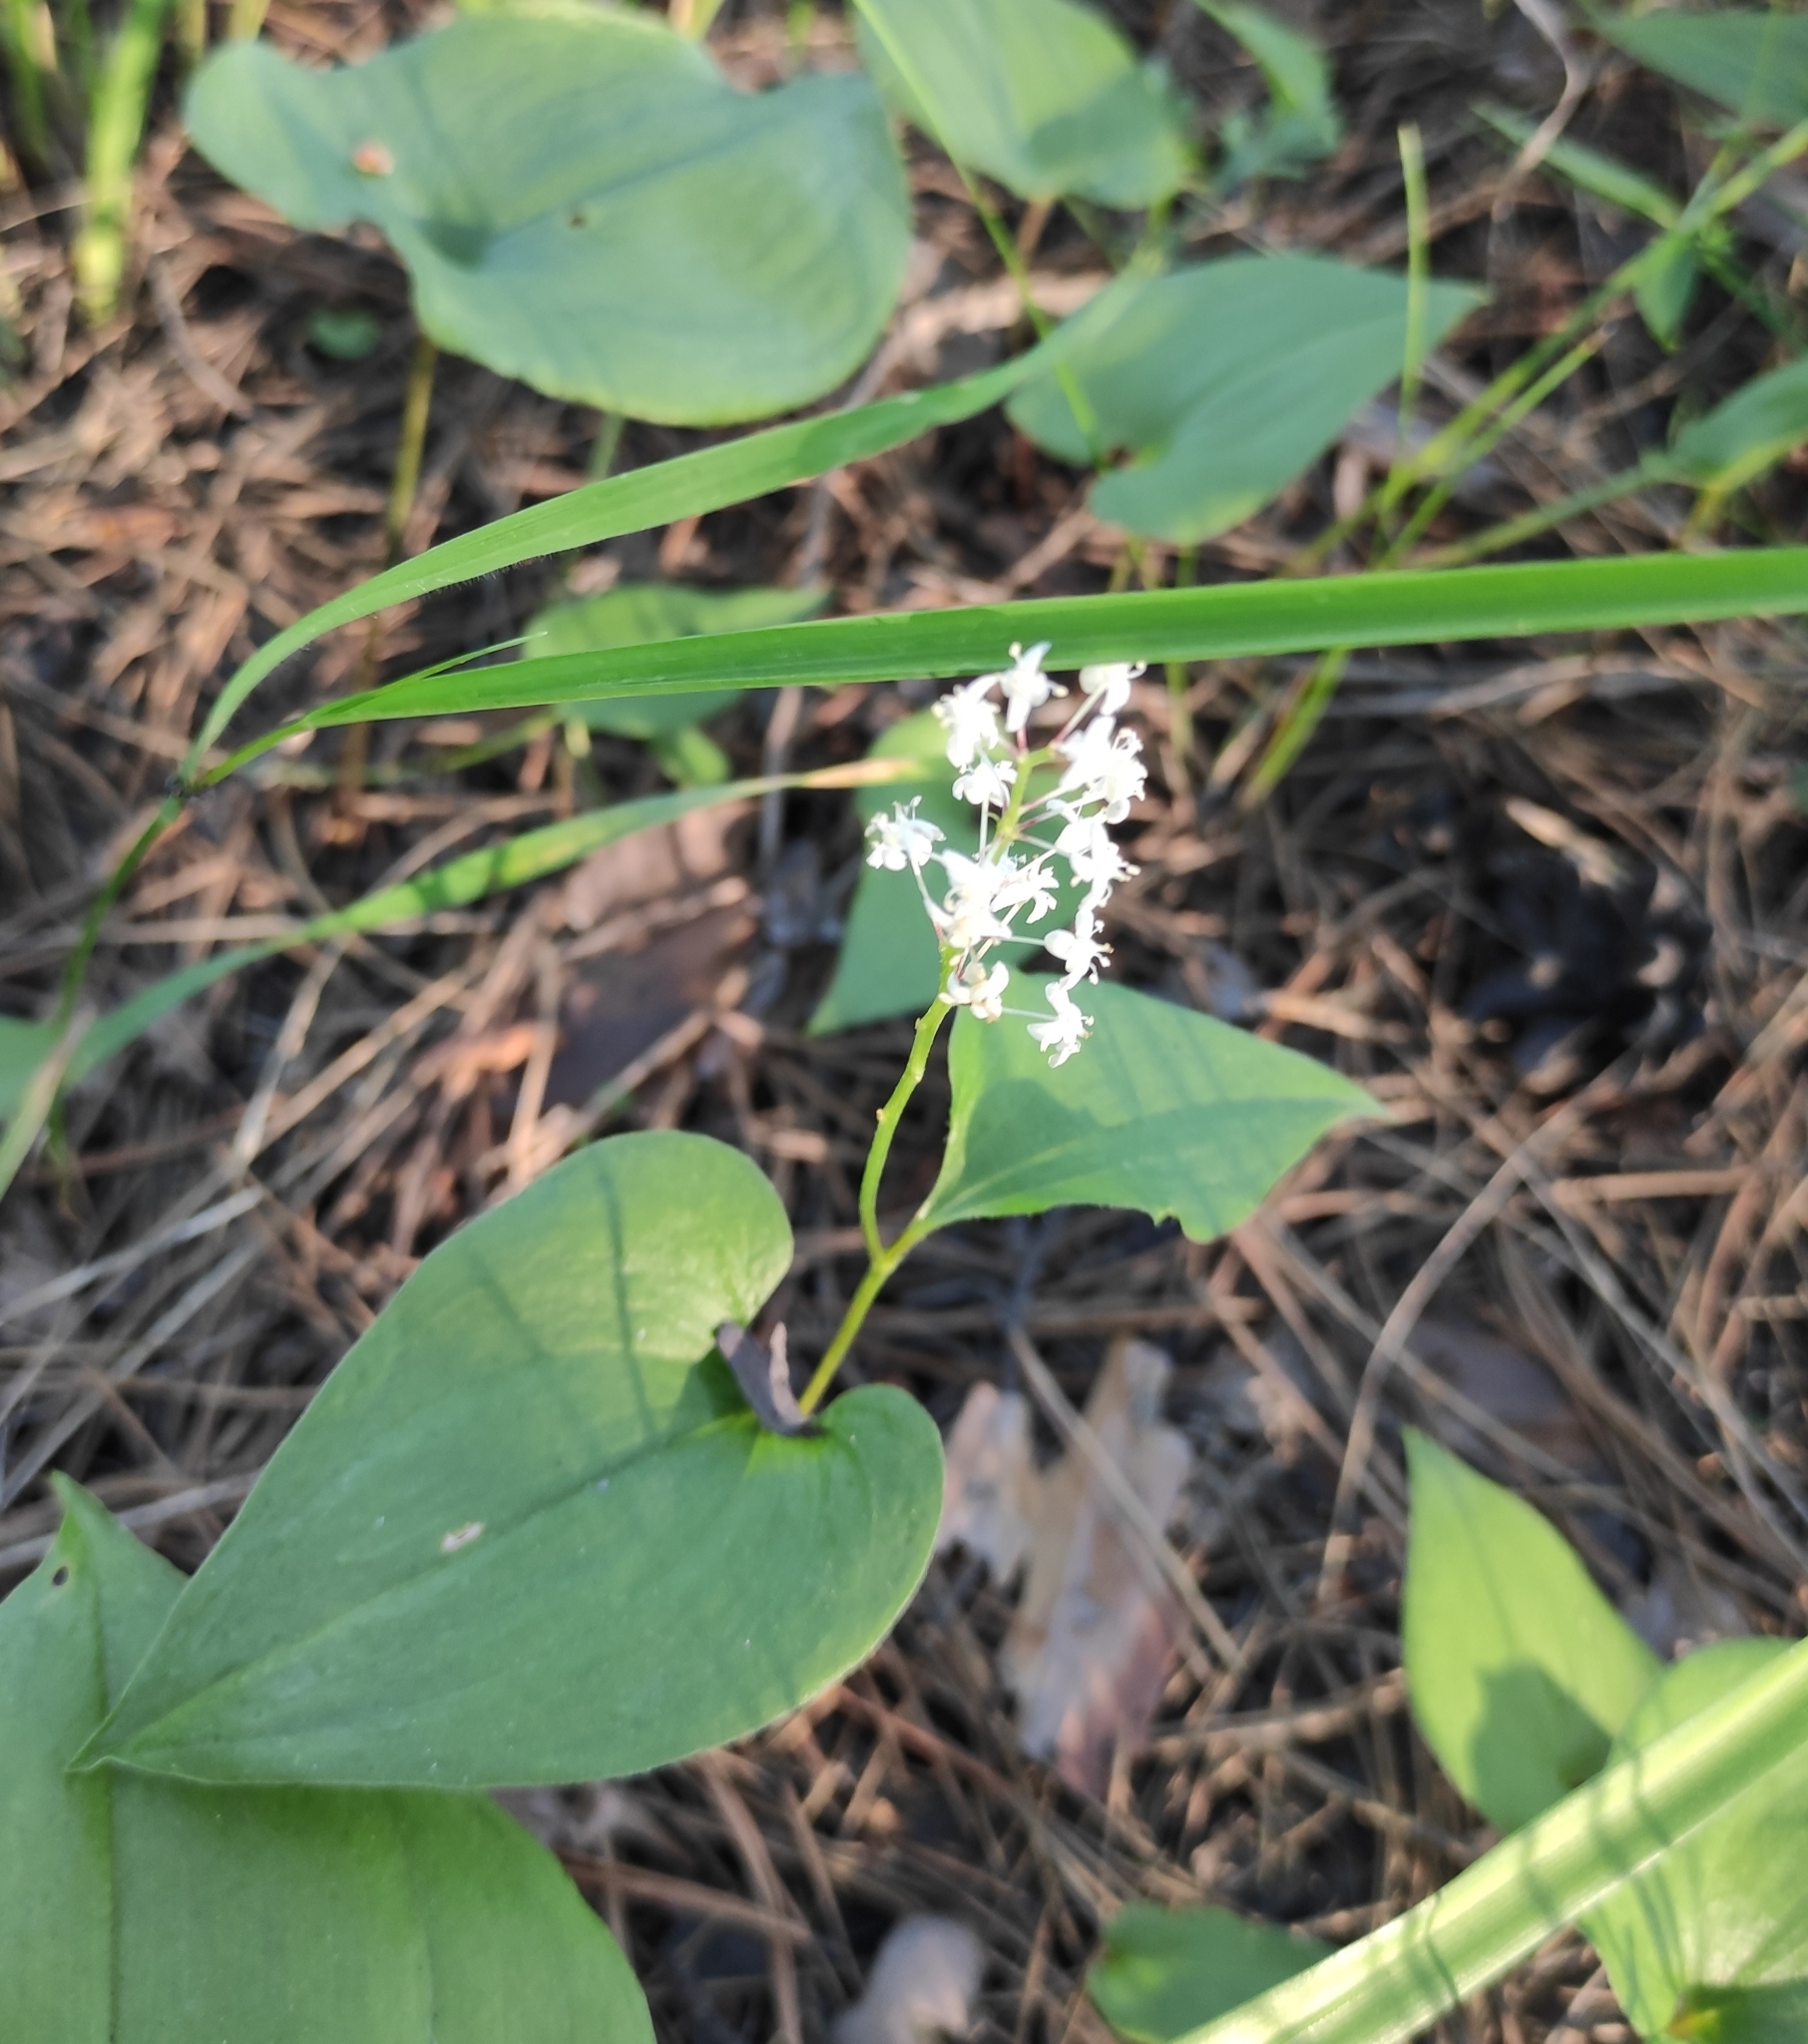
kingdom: Plantae
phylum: Tracheophyta
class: Liliopsida
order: Asparagales
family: Asparagaceae
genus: Maianthemum
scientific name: Maianthemum bifolium
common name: May lily
